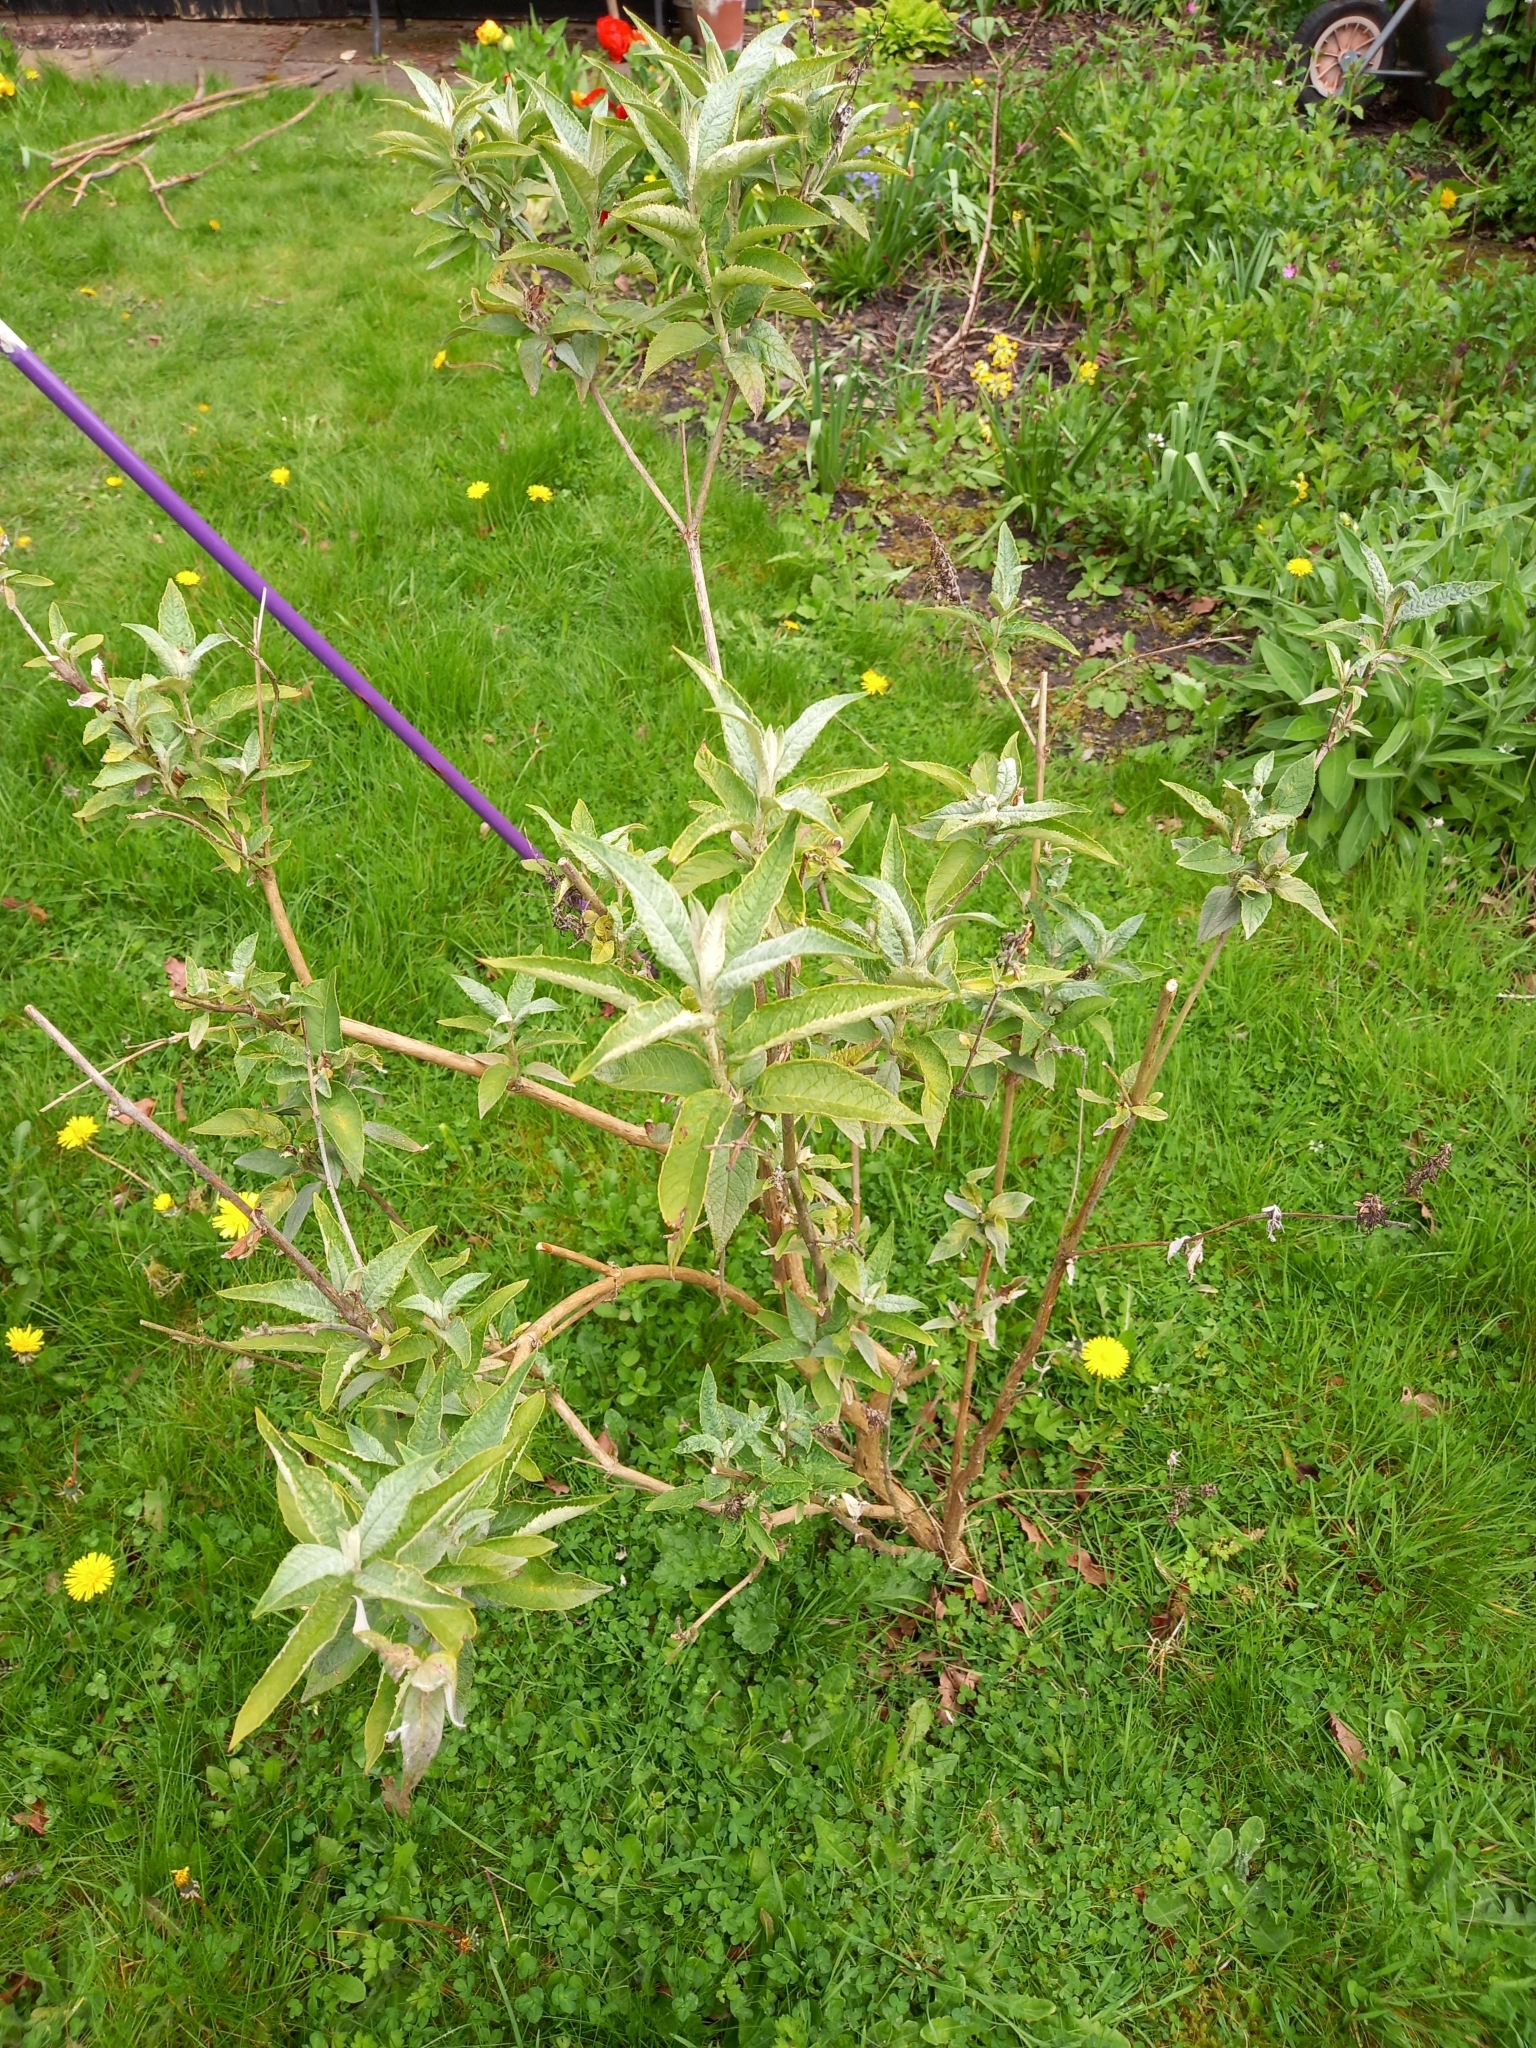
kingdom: Plantae
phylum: Tracheophyta
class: Magnoliopsida
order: Lamiales
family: Scrophulariaceae
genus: Buddleja
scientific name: Buddleja davidii
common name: Butterfly-bush
